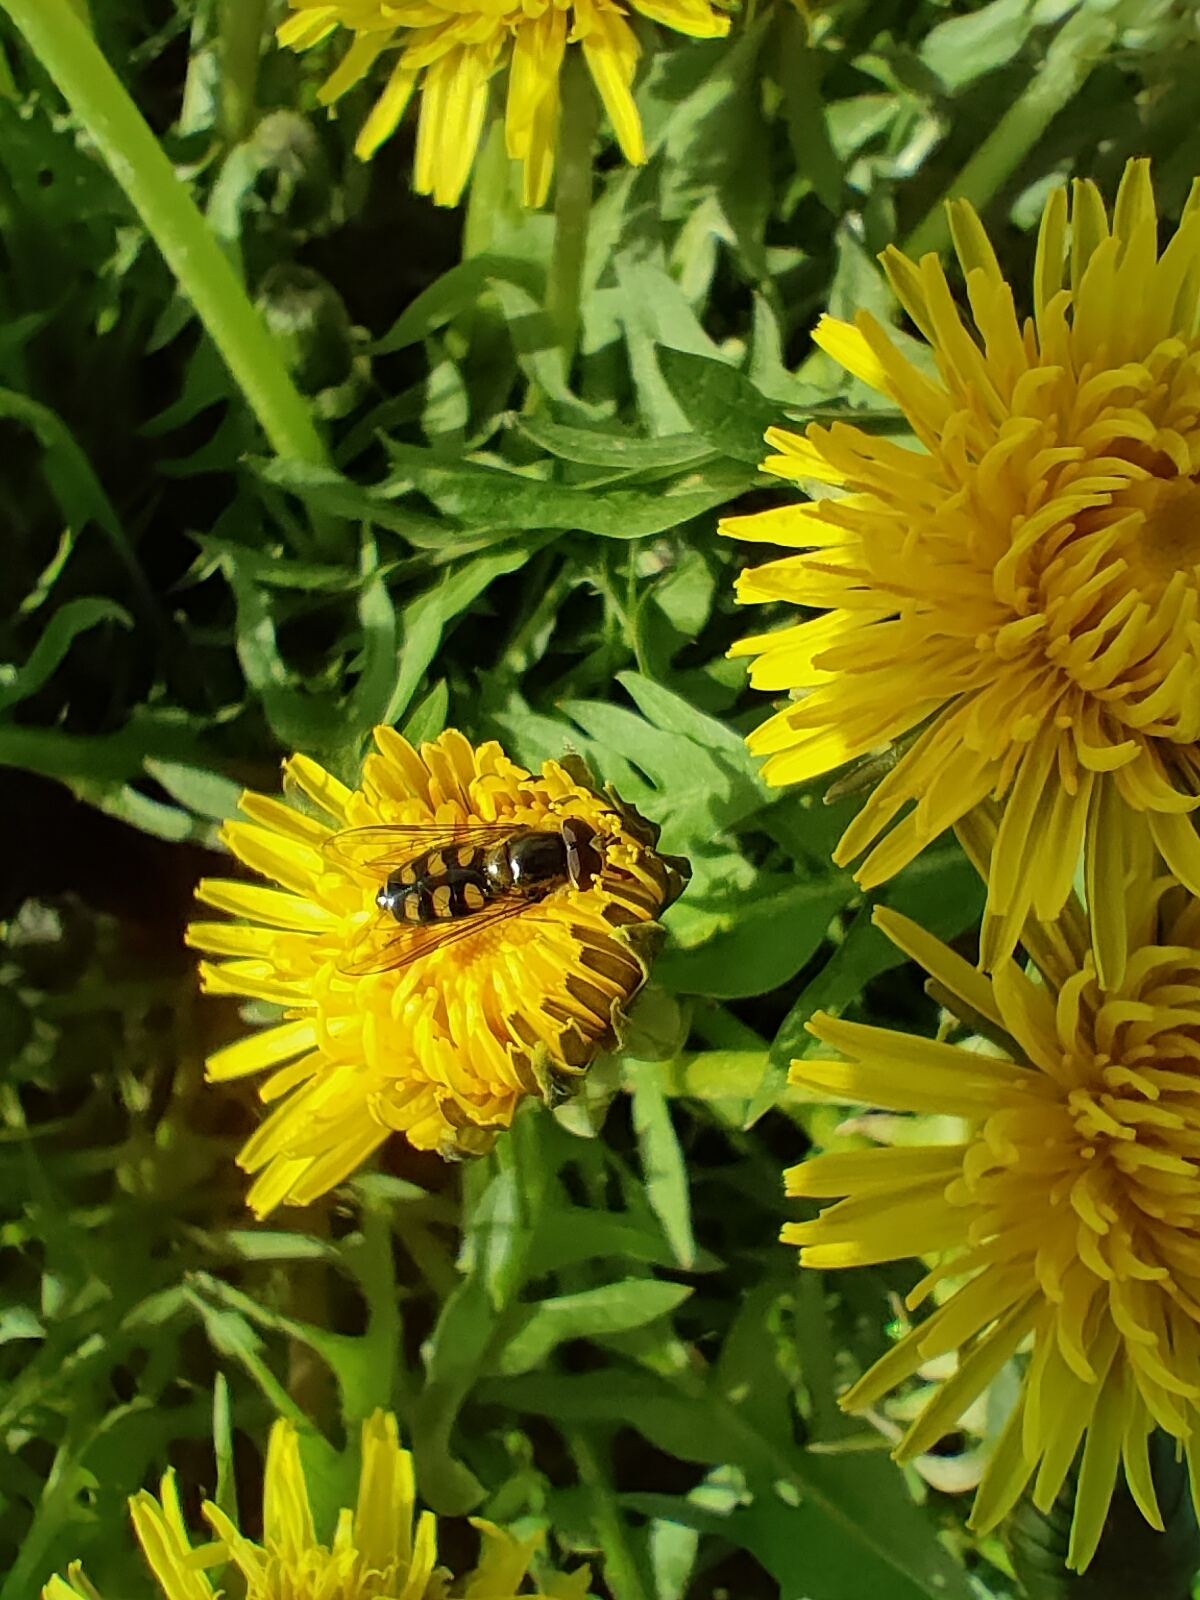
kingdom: Animalia
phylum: Arthropoda
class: Insecta
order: Diptera
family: Syrphidae
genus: Eupeodes
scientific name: Eupeodes corollae
